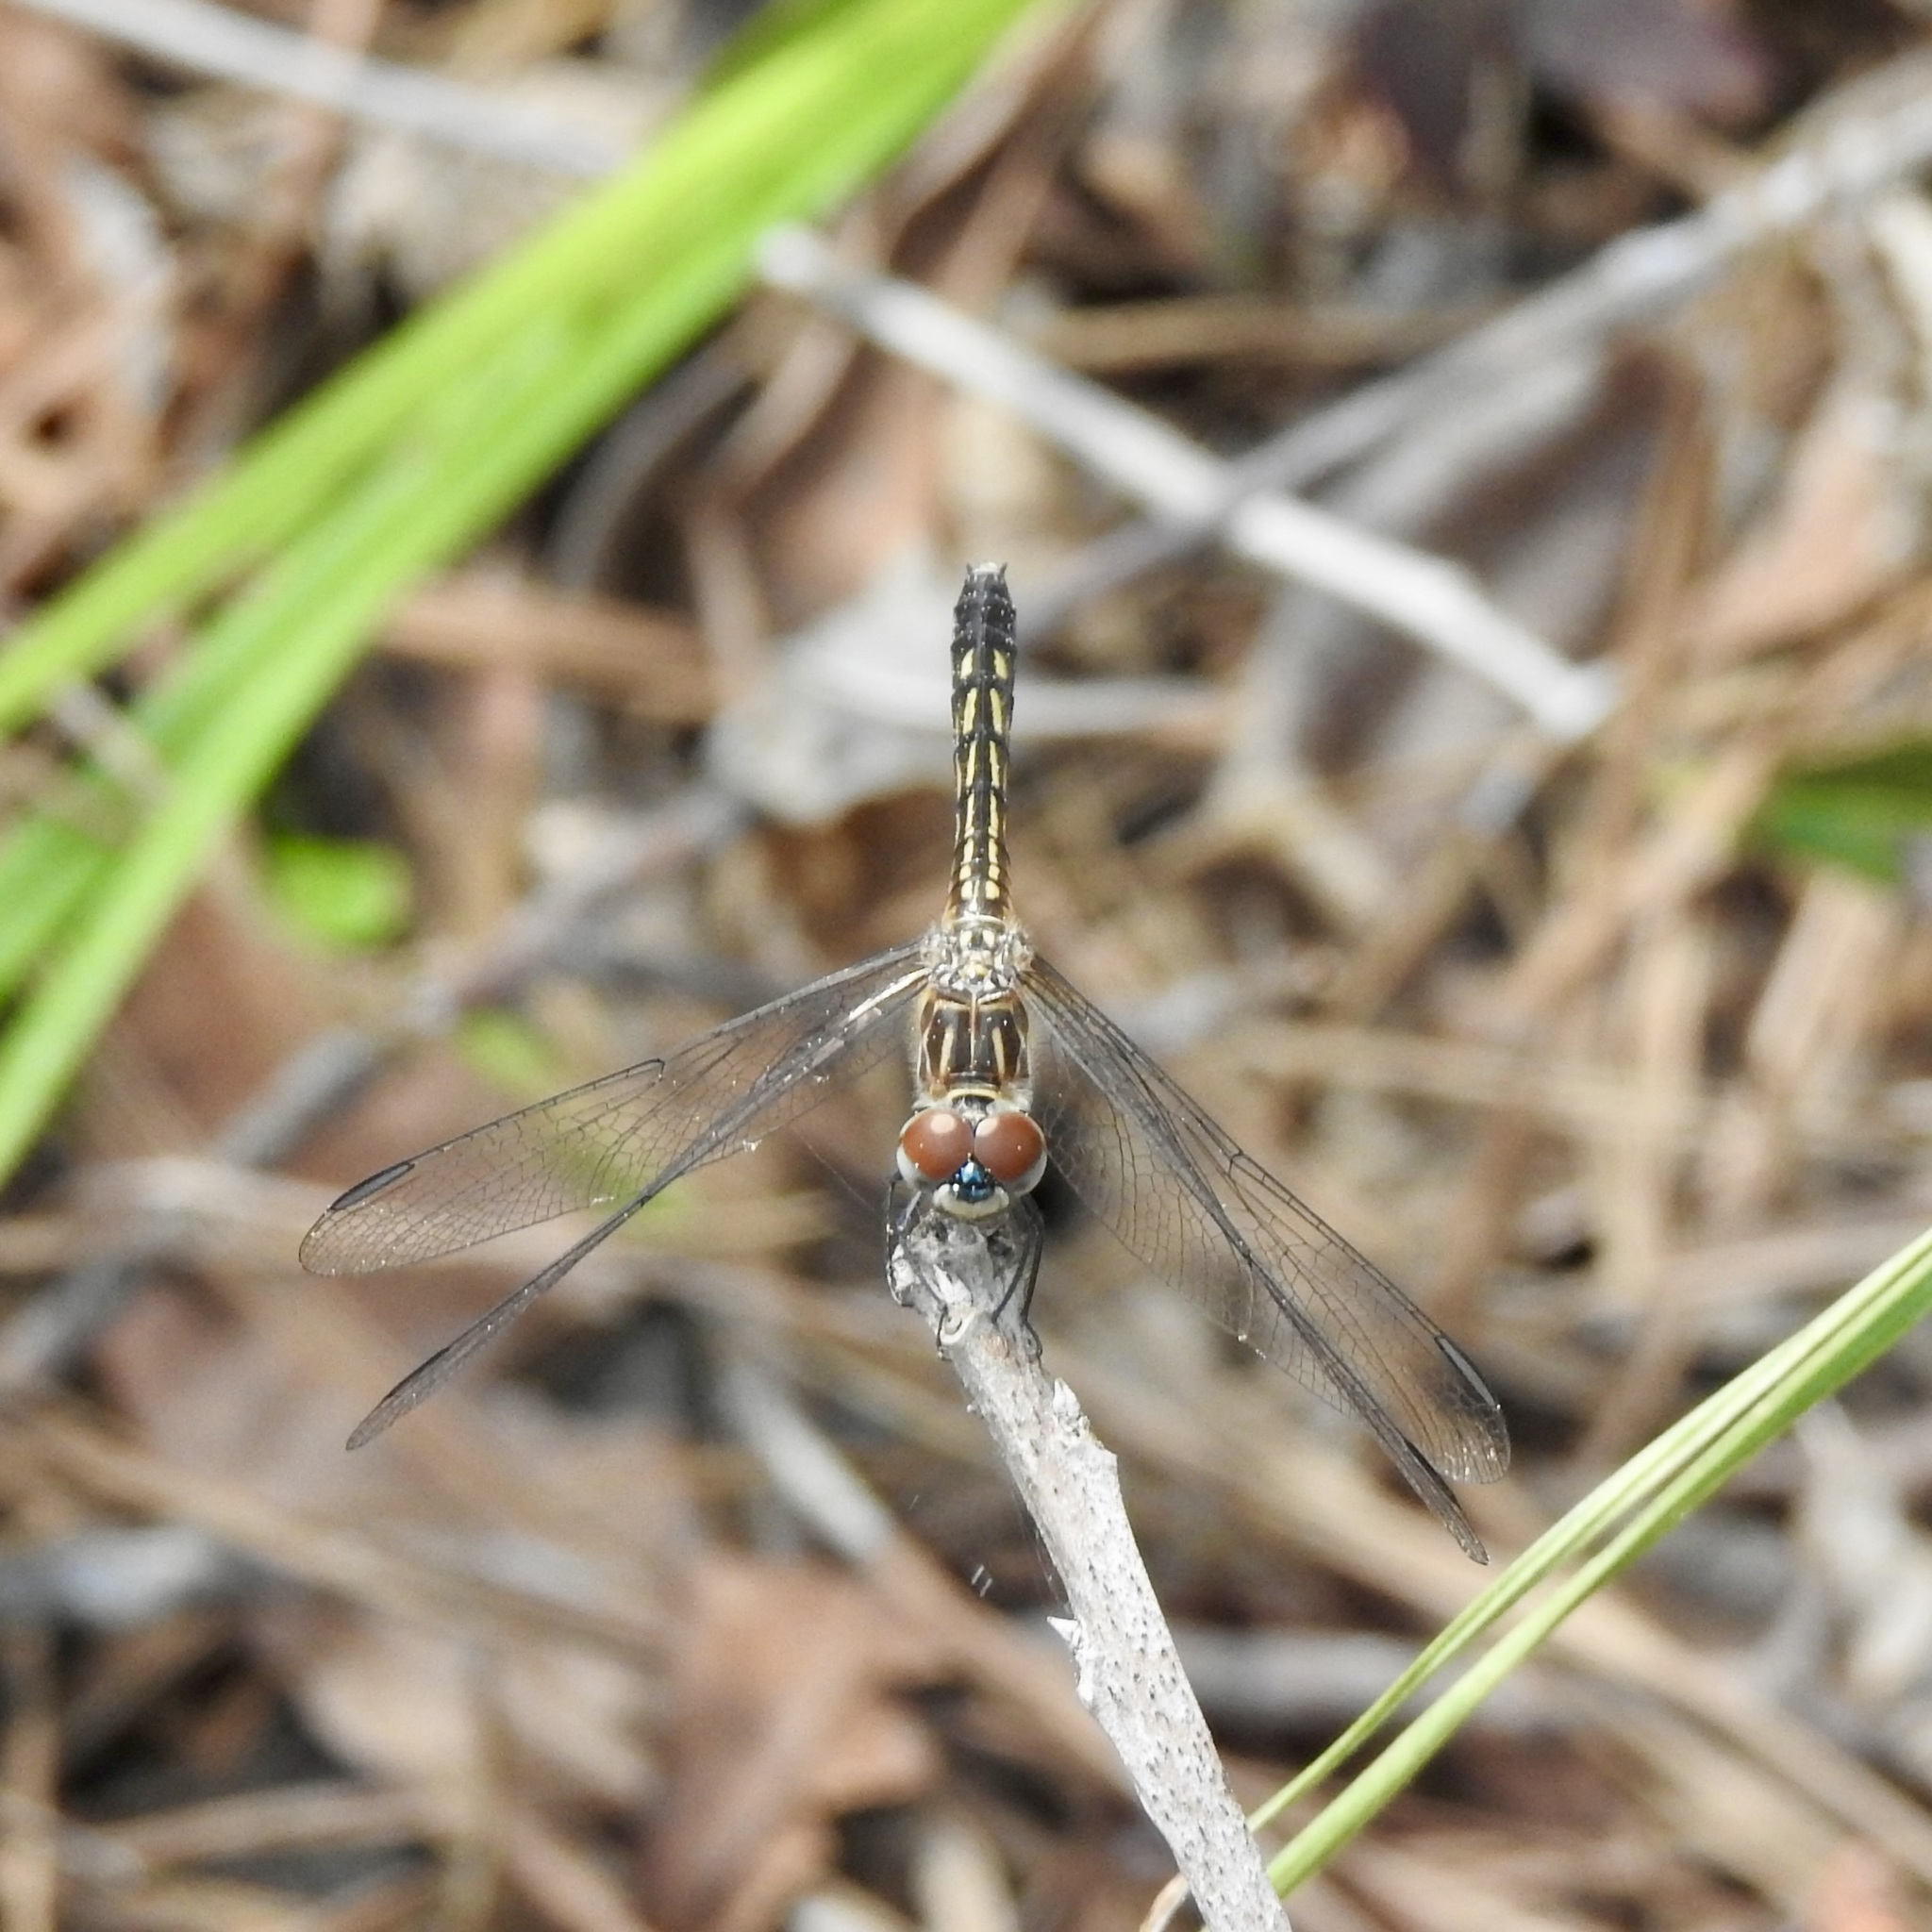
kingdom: Animalia
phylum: Arthropoda
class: Insecta
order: Odonata
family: Libellulidae
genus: Pachydiplax
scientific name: Pachydiplax longipennis
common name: Blue dasher
